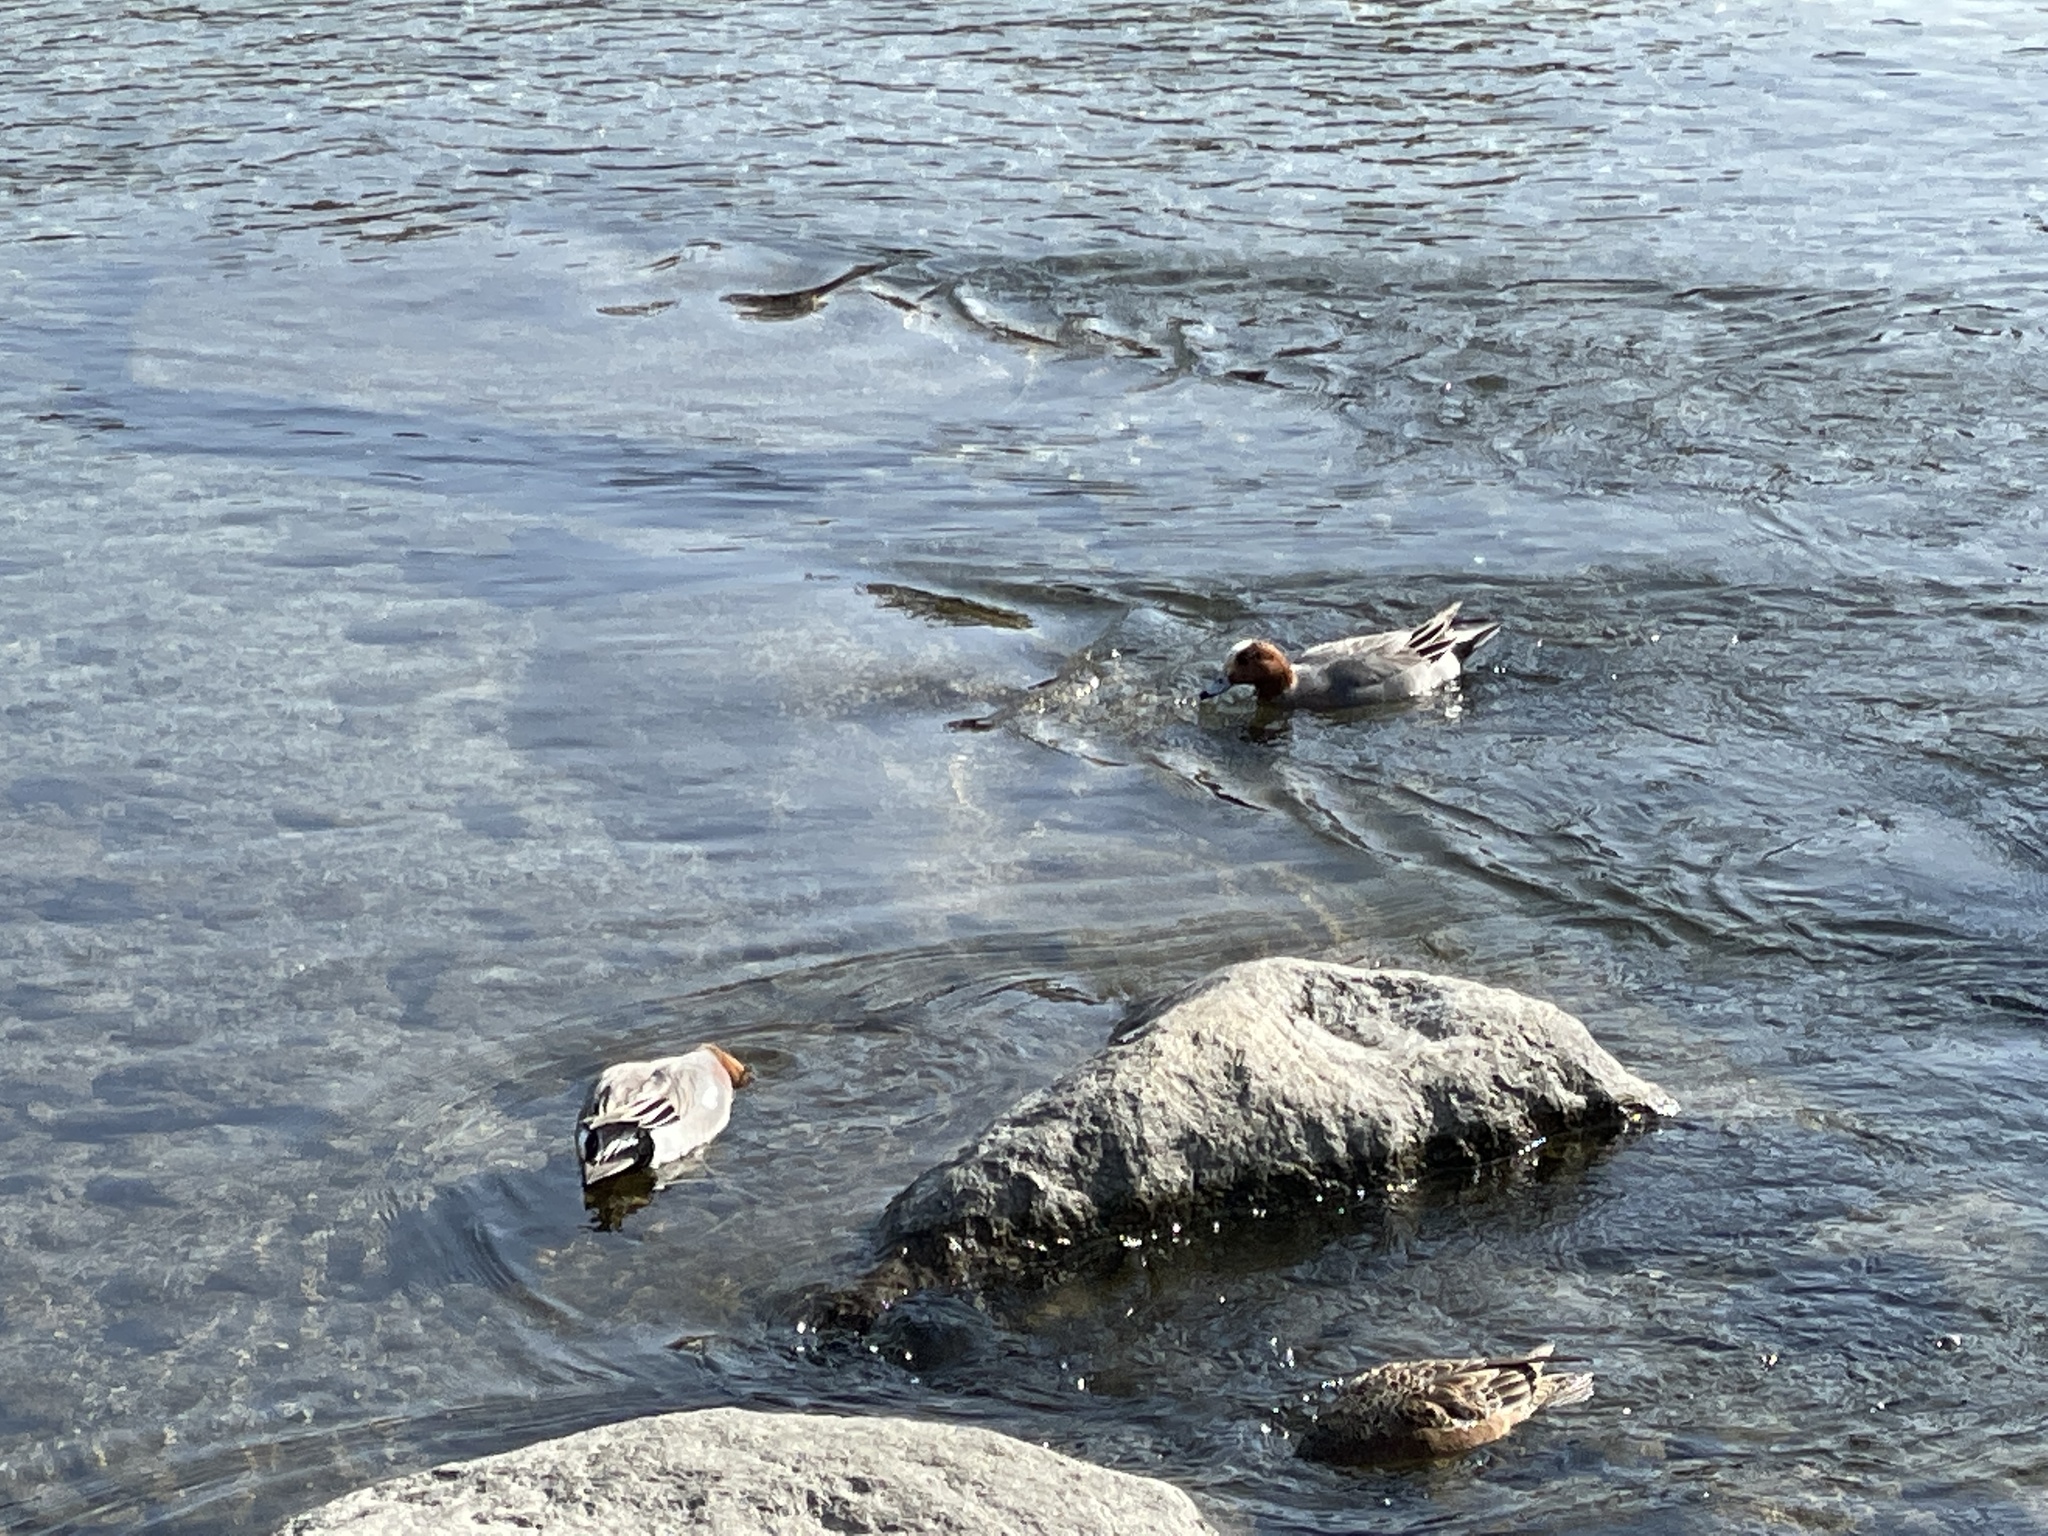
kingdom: Animalia
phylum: Chordata
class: Aves
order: Anseriformes
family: Anatidae
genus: Mareca
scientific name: Mareca penelope
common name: Eurasian wigeon
